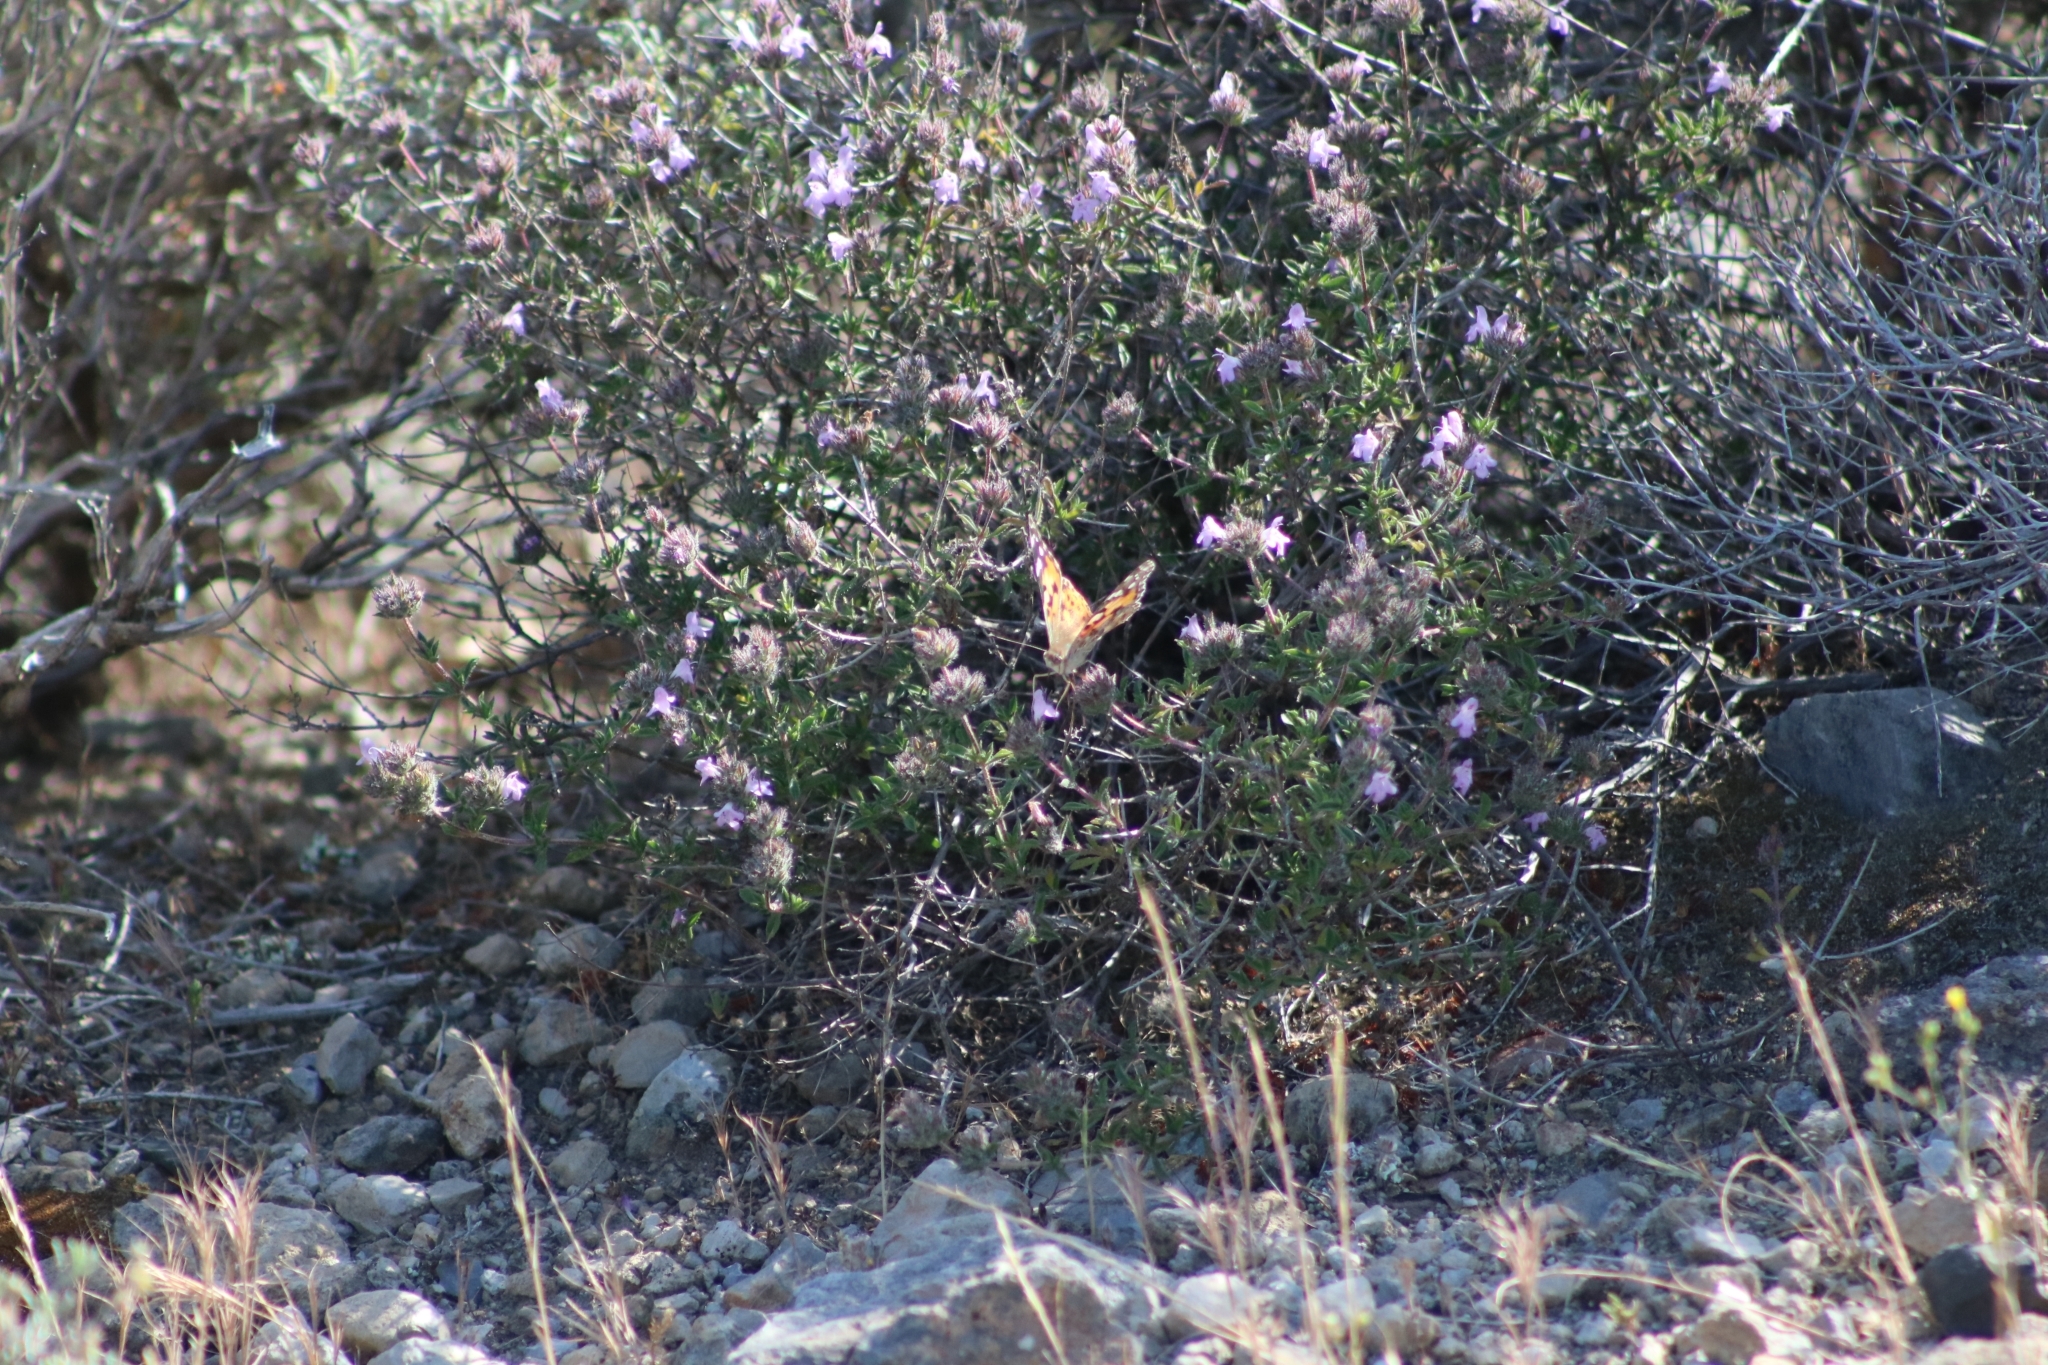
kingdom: Animalia
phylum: Arthropoda
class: Insecta
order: Lepidoptera
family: Nymphalidae
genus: Vanessa
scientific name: Vanessa cardui
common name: Painted lady
